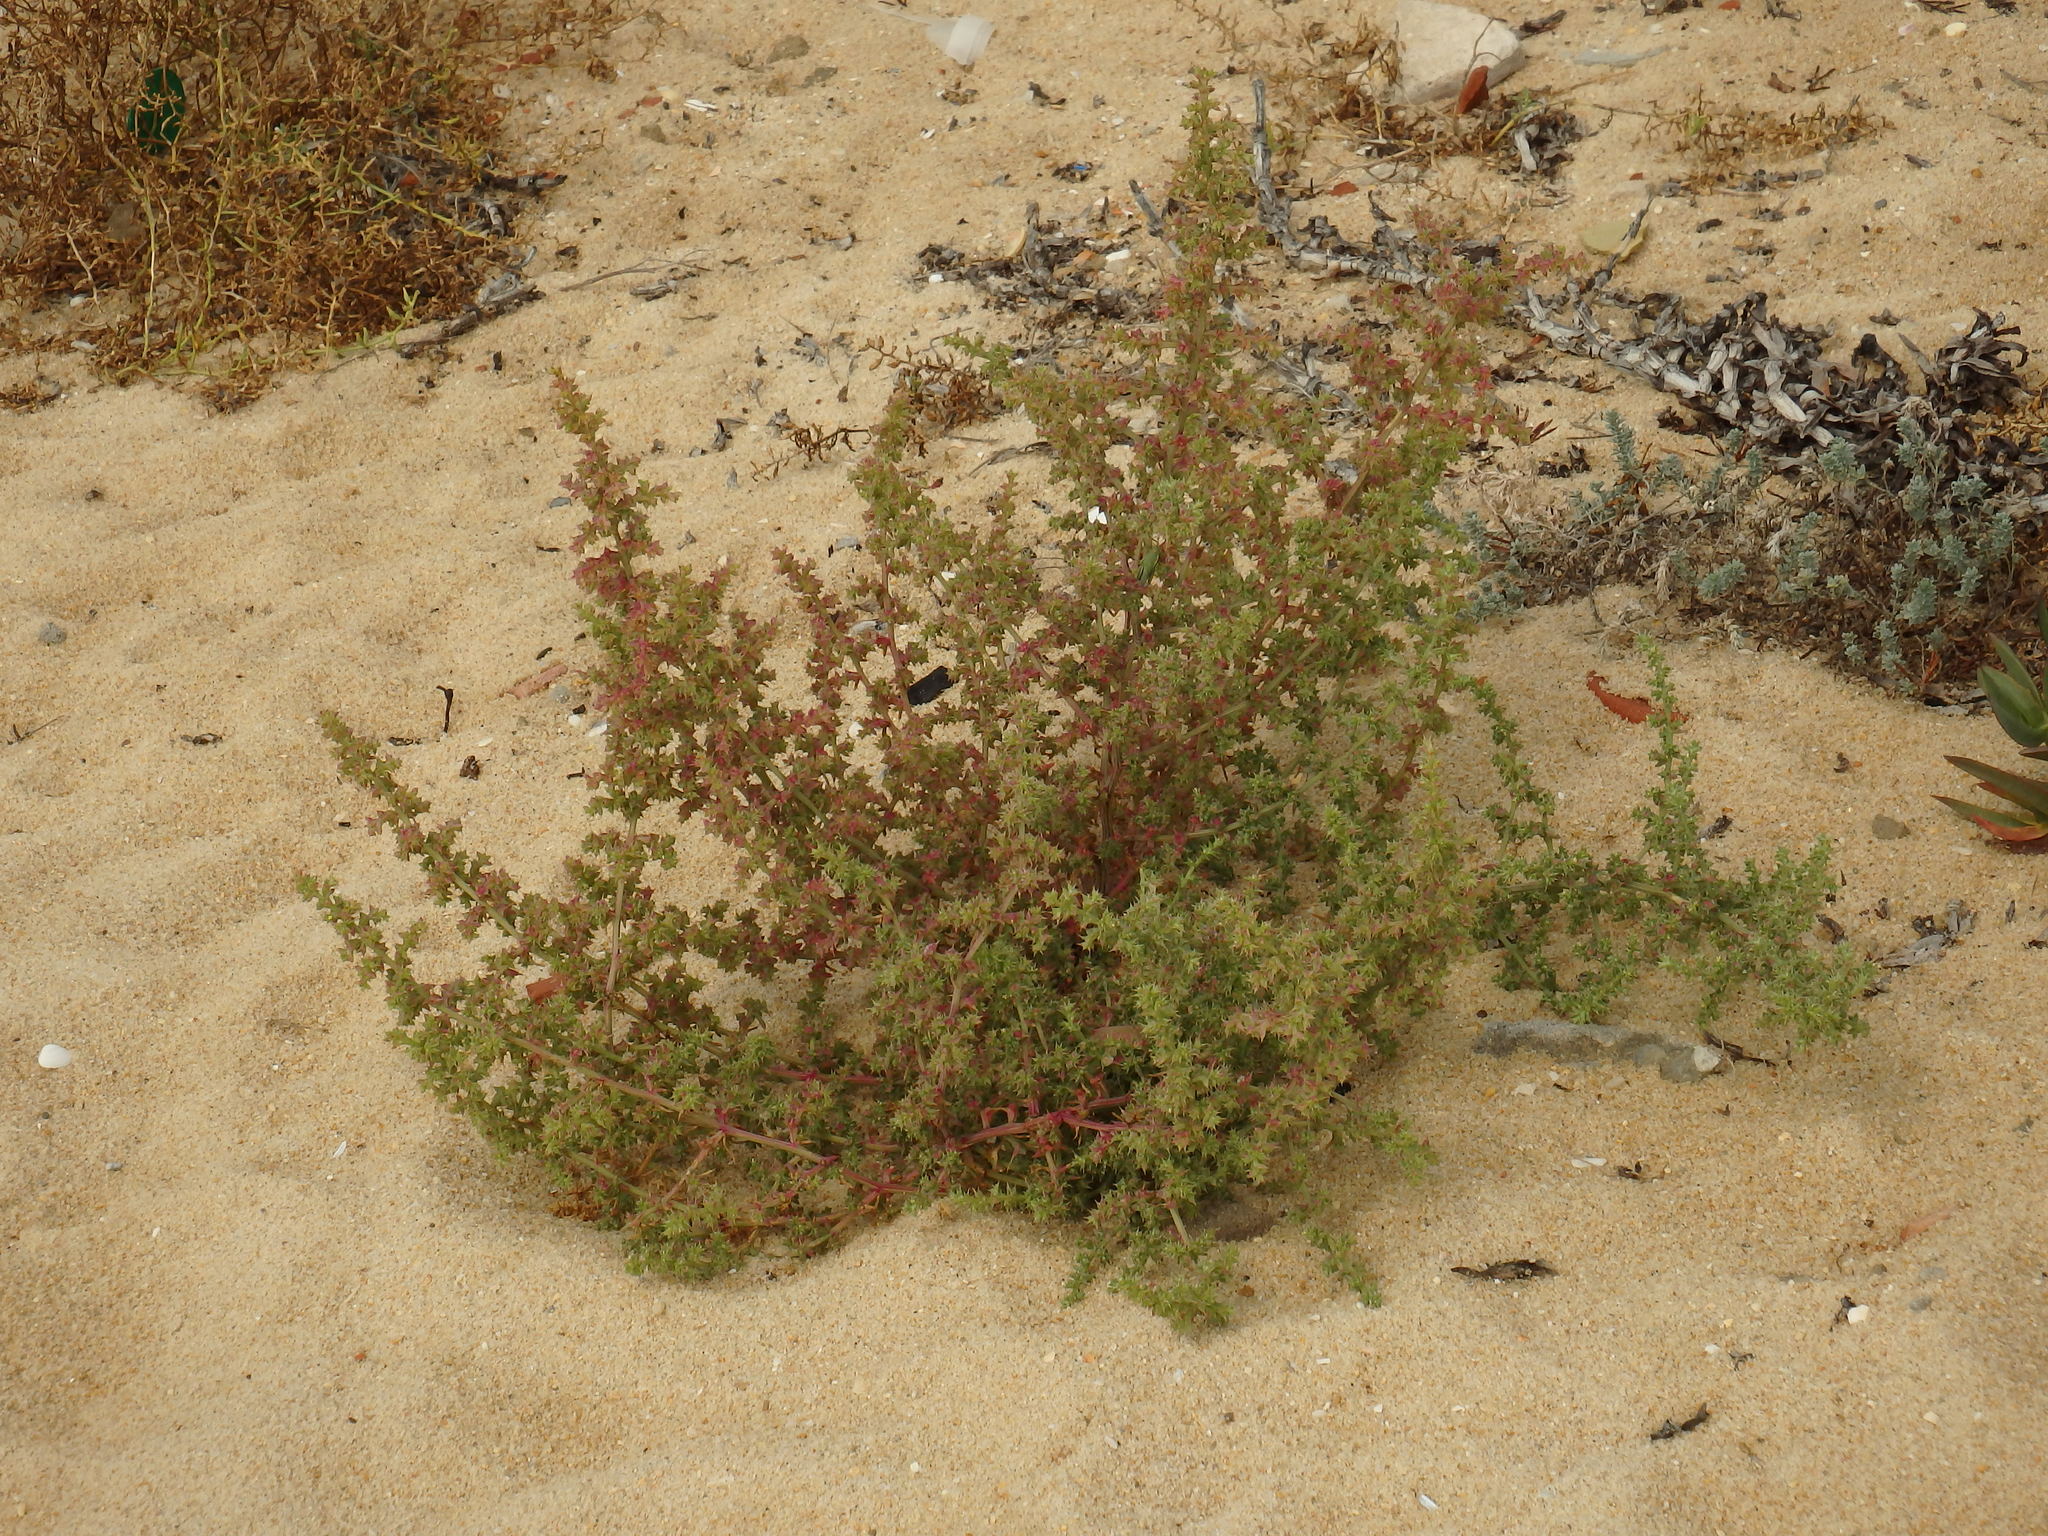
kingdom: Plantae
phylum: Tracheophyta
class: Magnoliopsida
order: Caryophyllales
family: Amaranthaceae
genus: Salsola
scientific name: Salsola kali
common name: Saltwort
